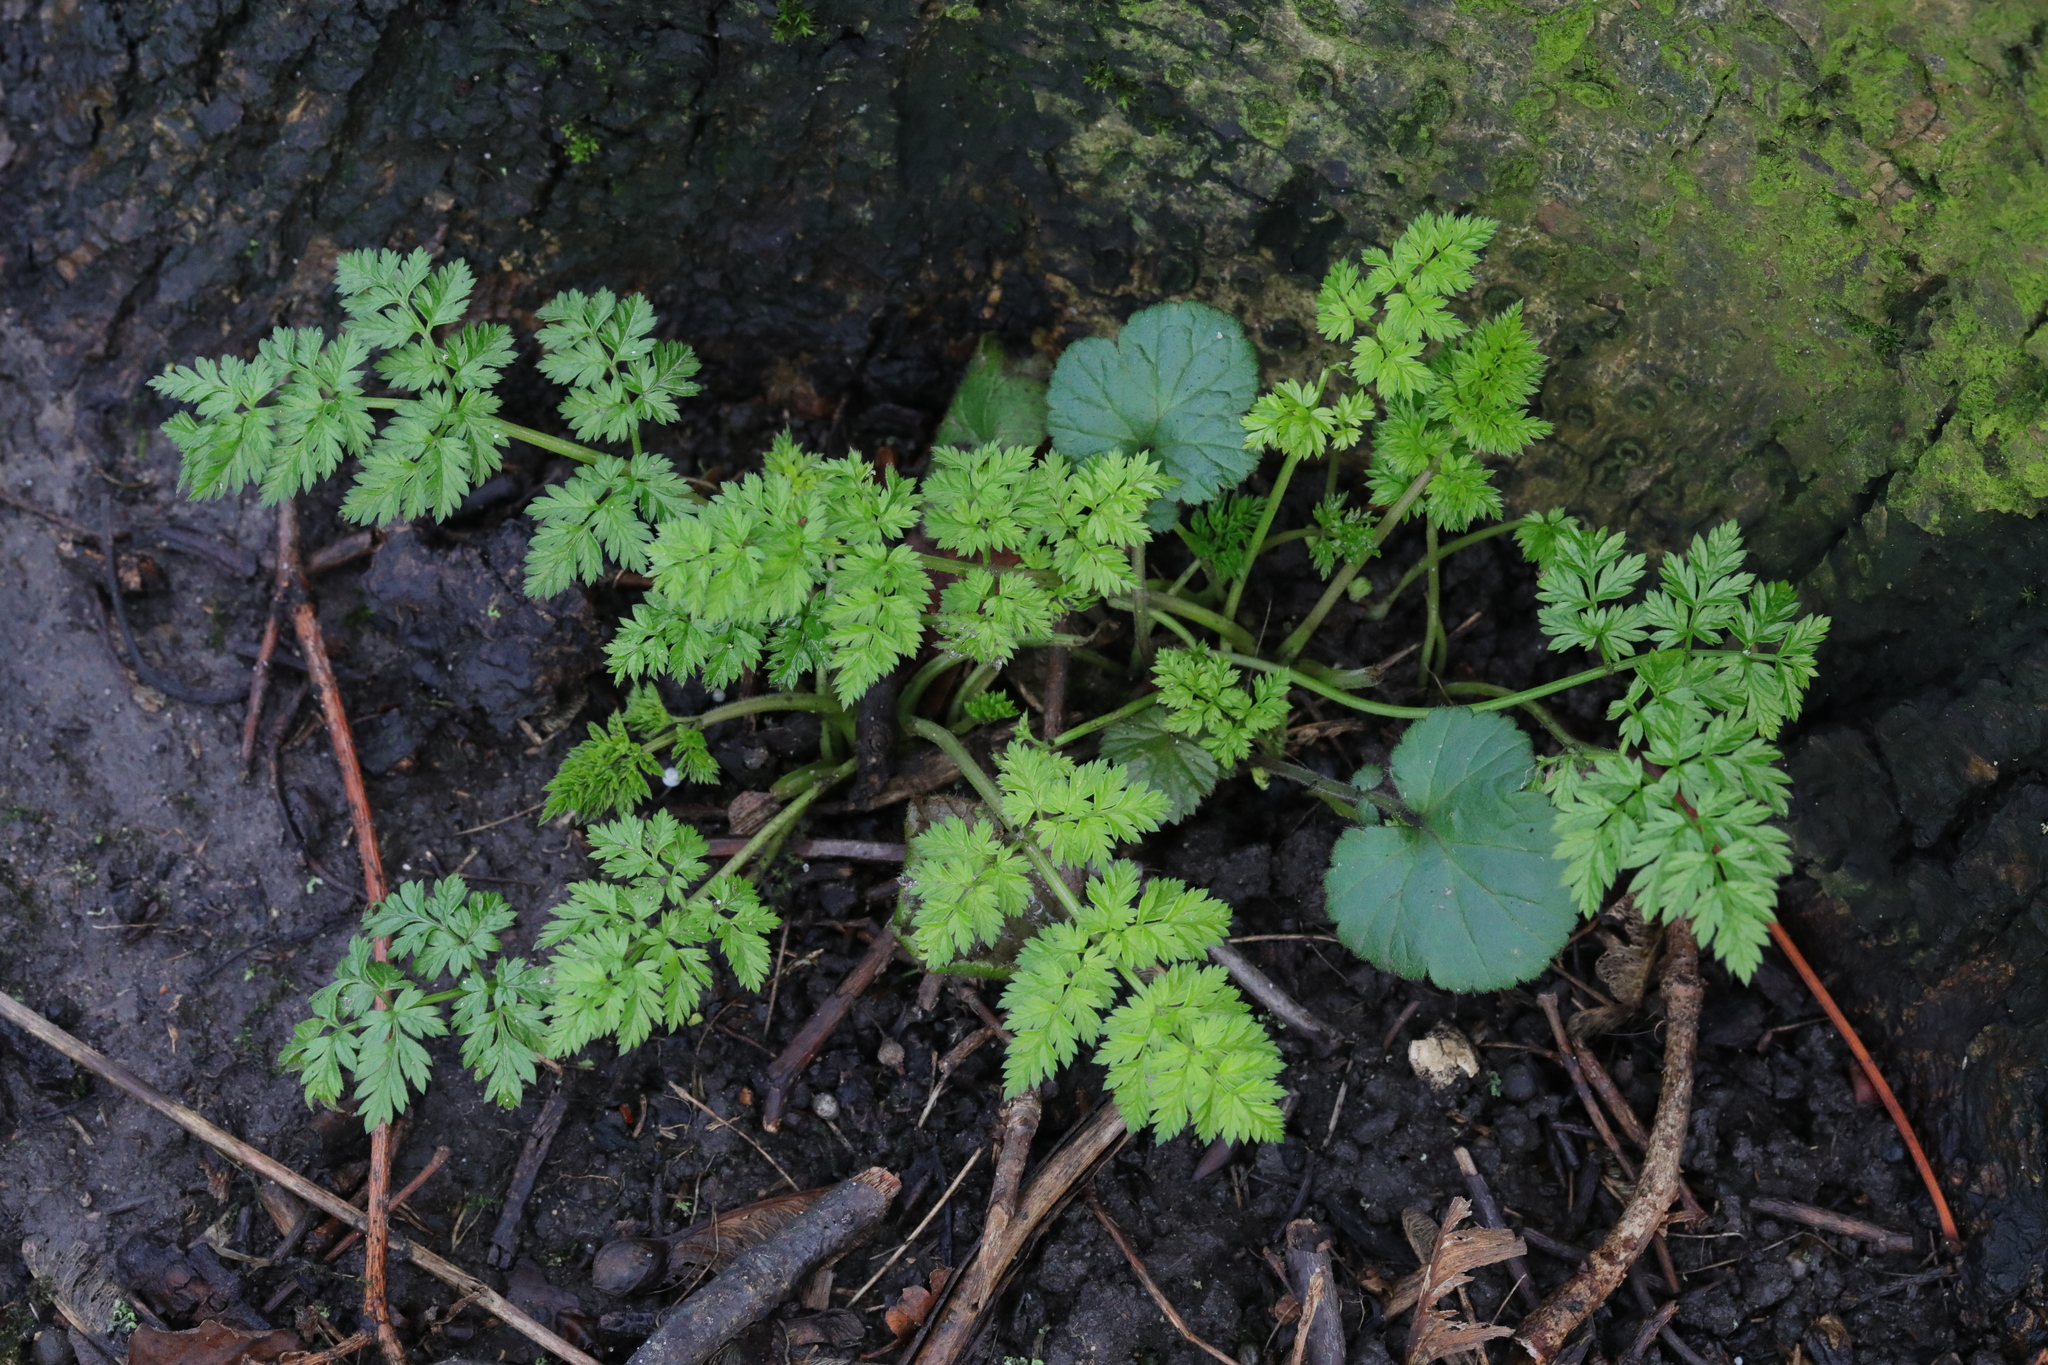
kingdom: Plantae
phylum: Tracheophyta
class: Magnoliopsida
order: Apiales
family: Apiaceae
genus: Anthriscus
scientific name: Anthriscus sylvestris
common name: Cow parsley
